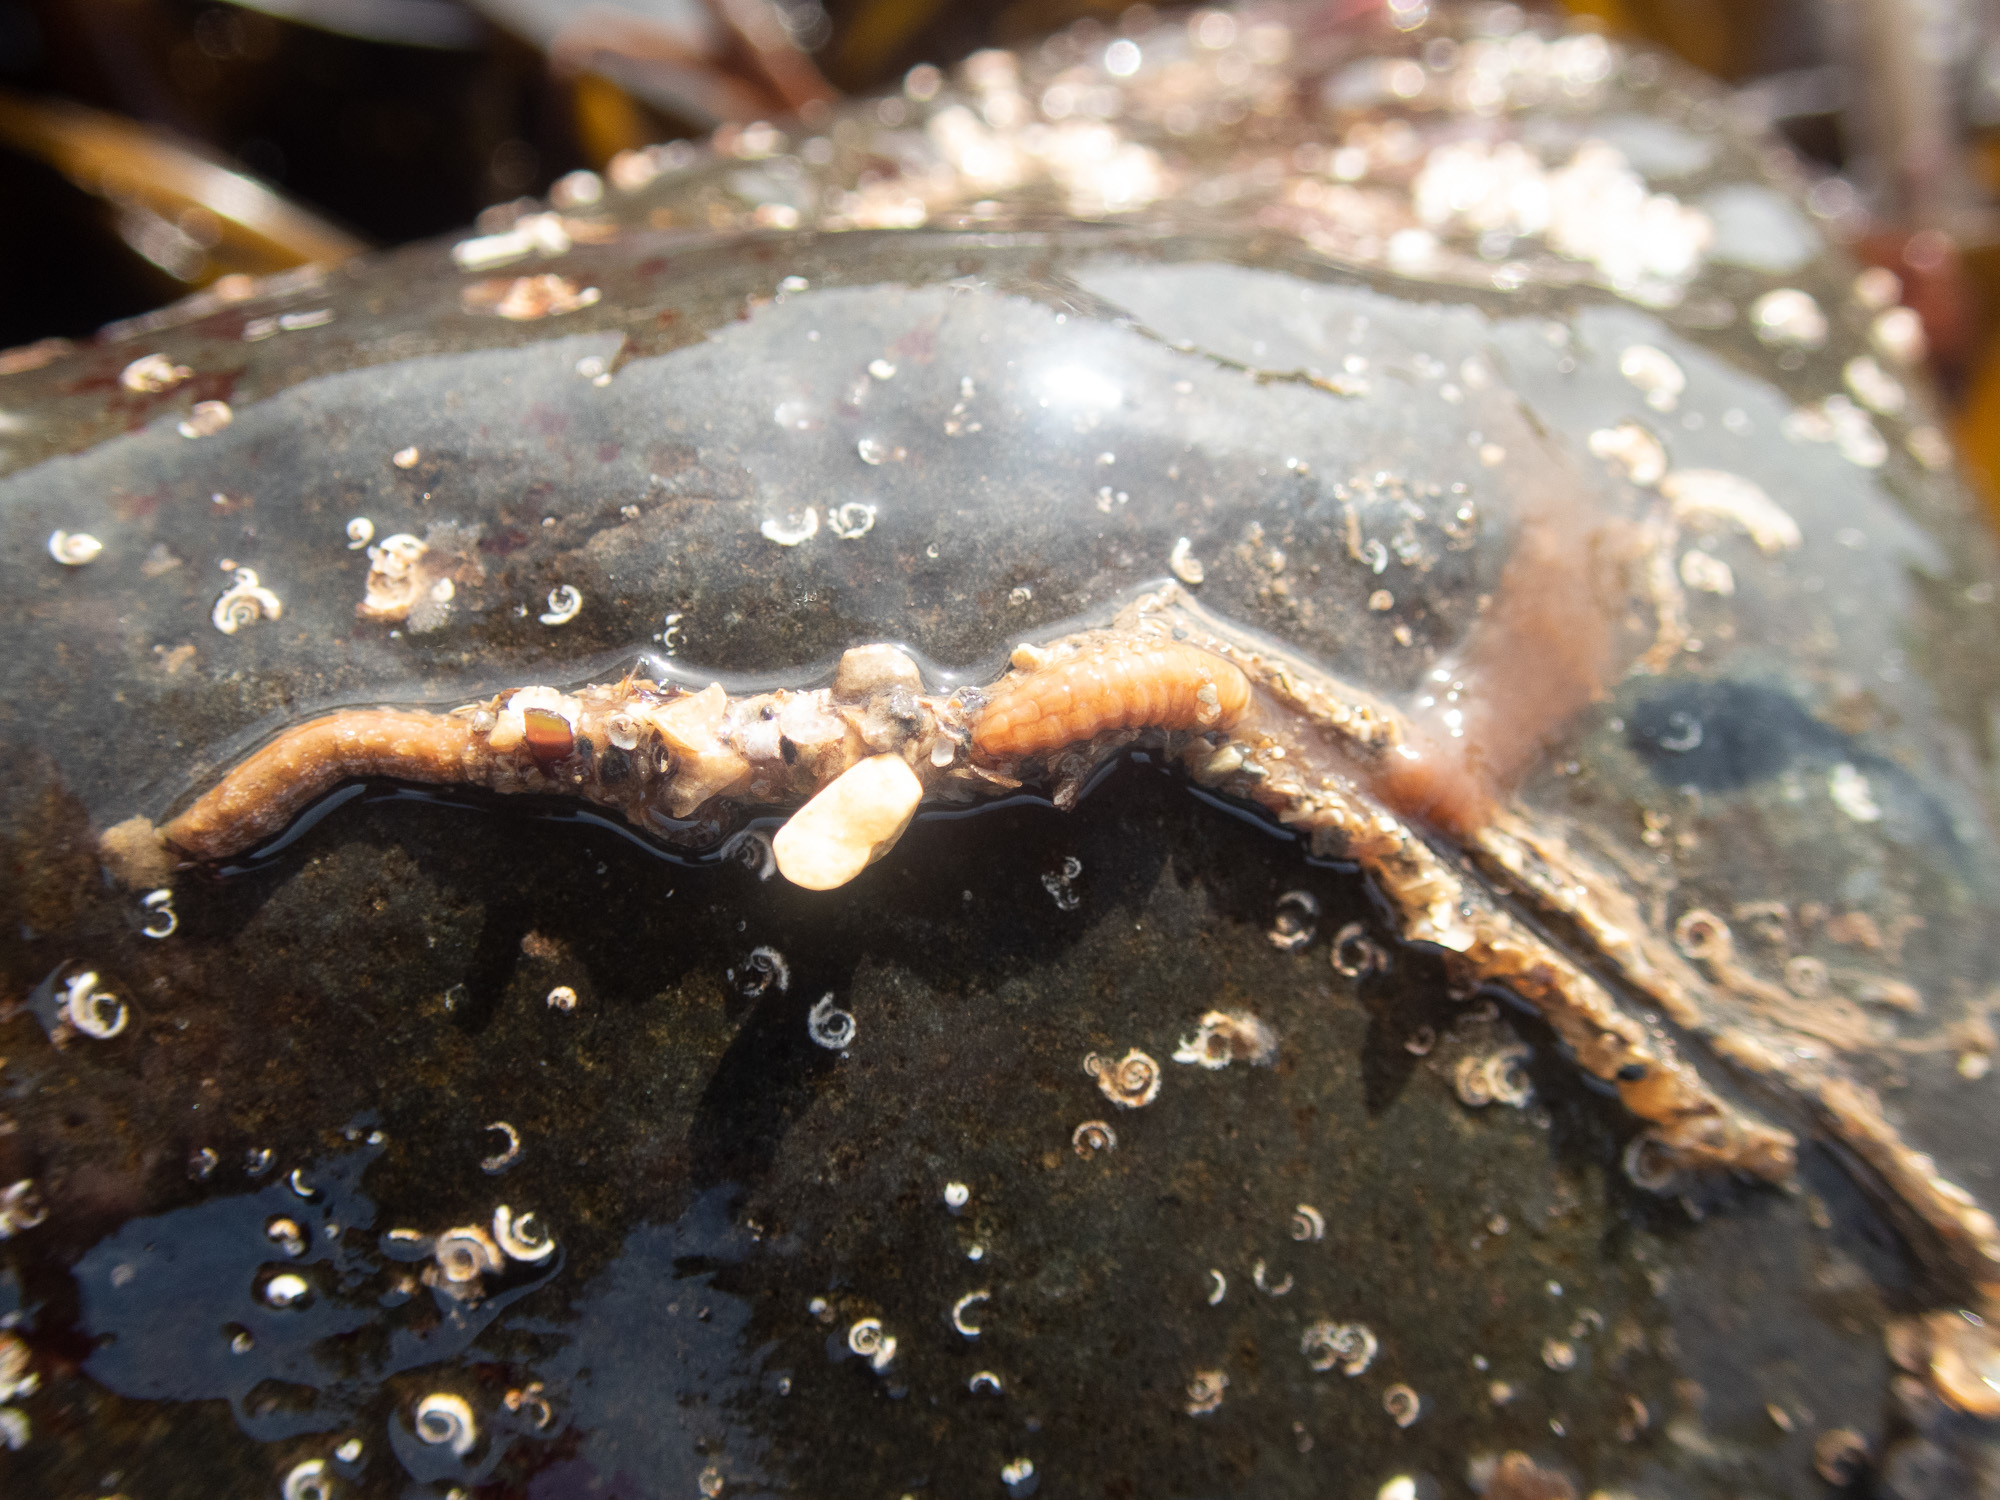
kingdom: Animalia
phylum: Annelida
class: Polychaeta
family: Terebellidae
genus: Eupolymnia
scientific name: Eupolymnia nebulosa
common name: Strawberry worm
